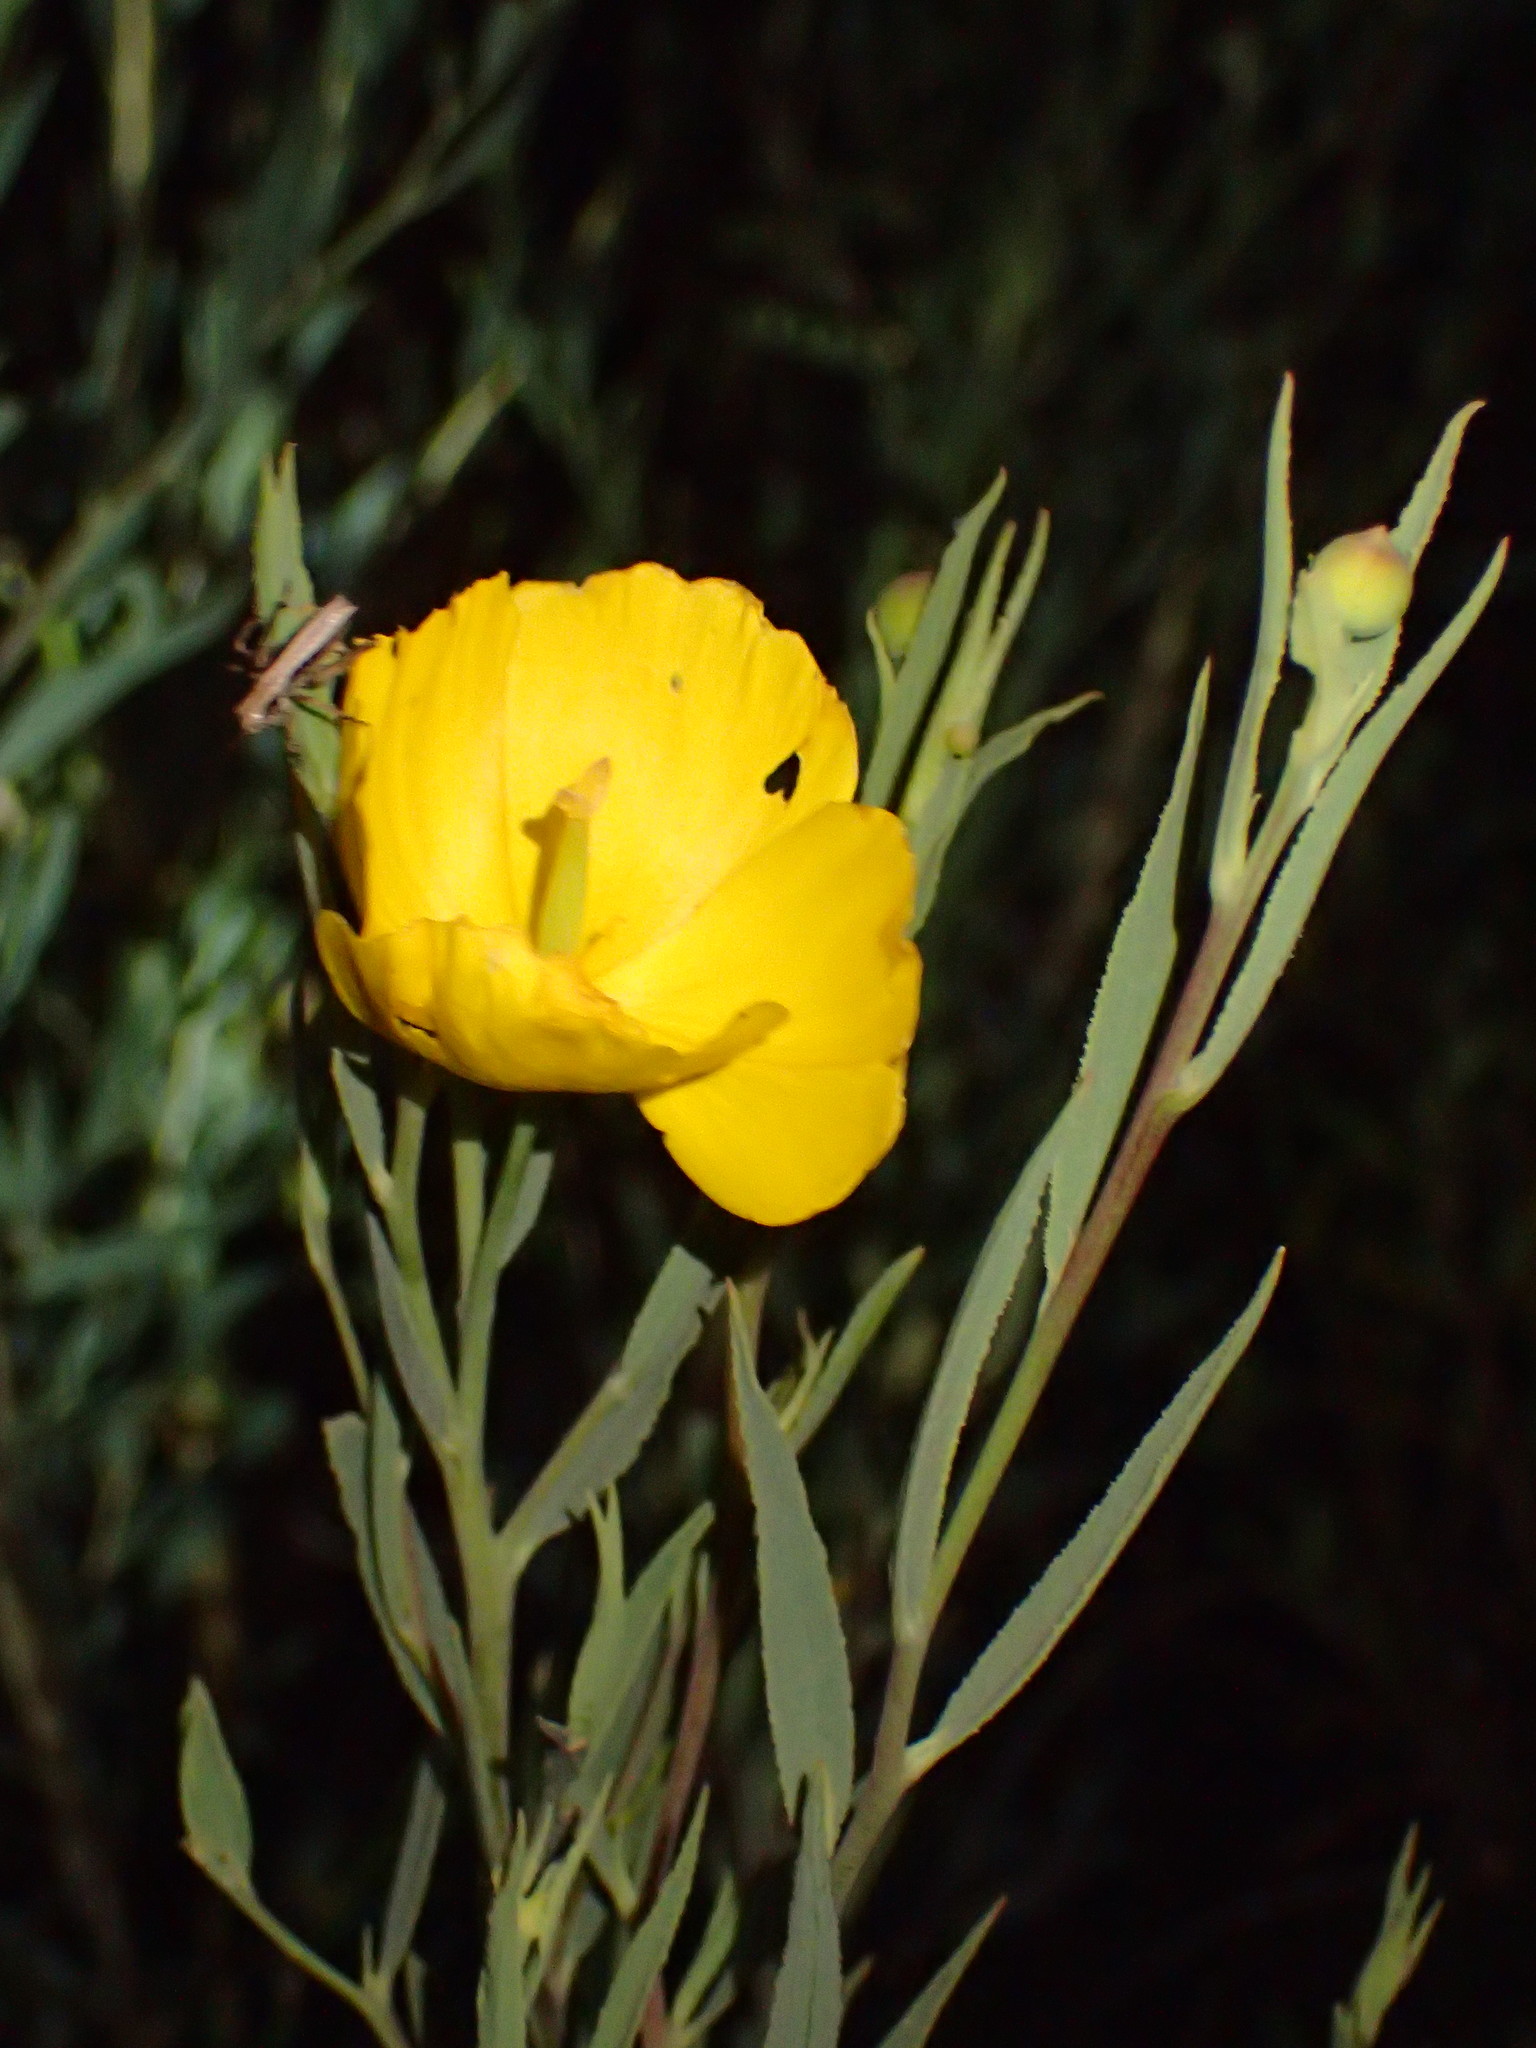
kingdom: Plantae
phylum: Tracheophyta
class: Magnoliopsida
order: Ranunculales
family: Papaveraceae
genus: Dendromecon
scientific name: Dendromecon rigida
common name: Tree poppy
